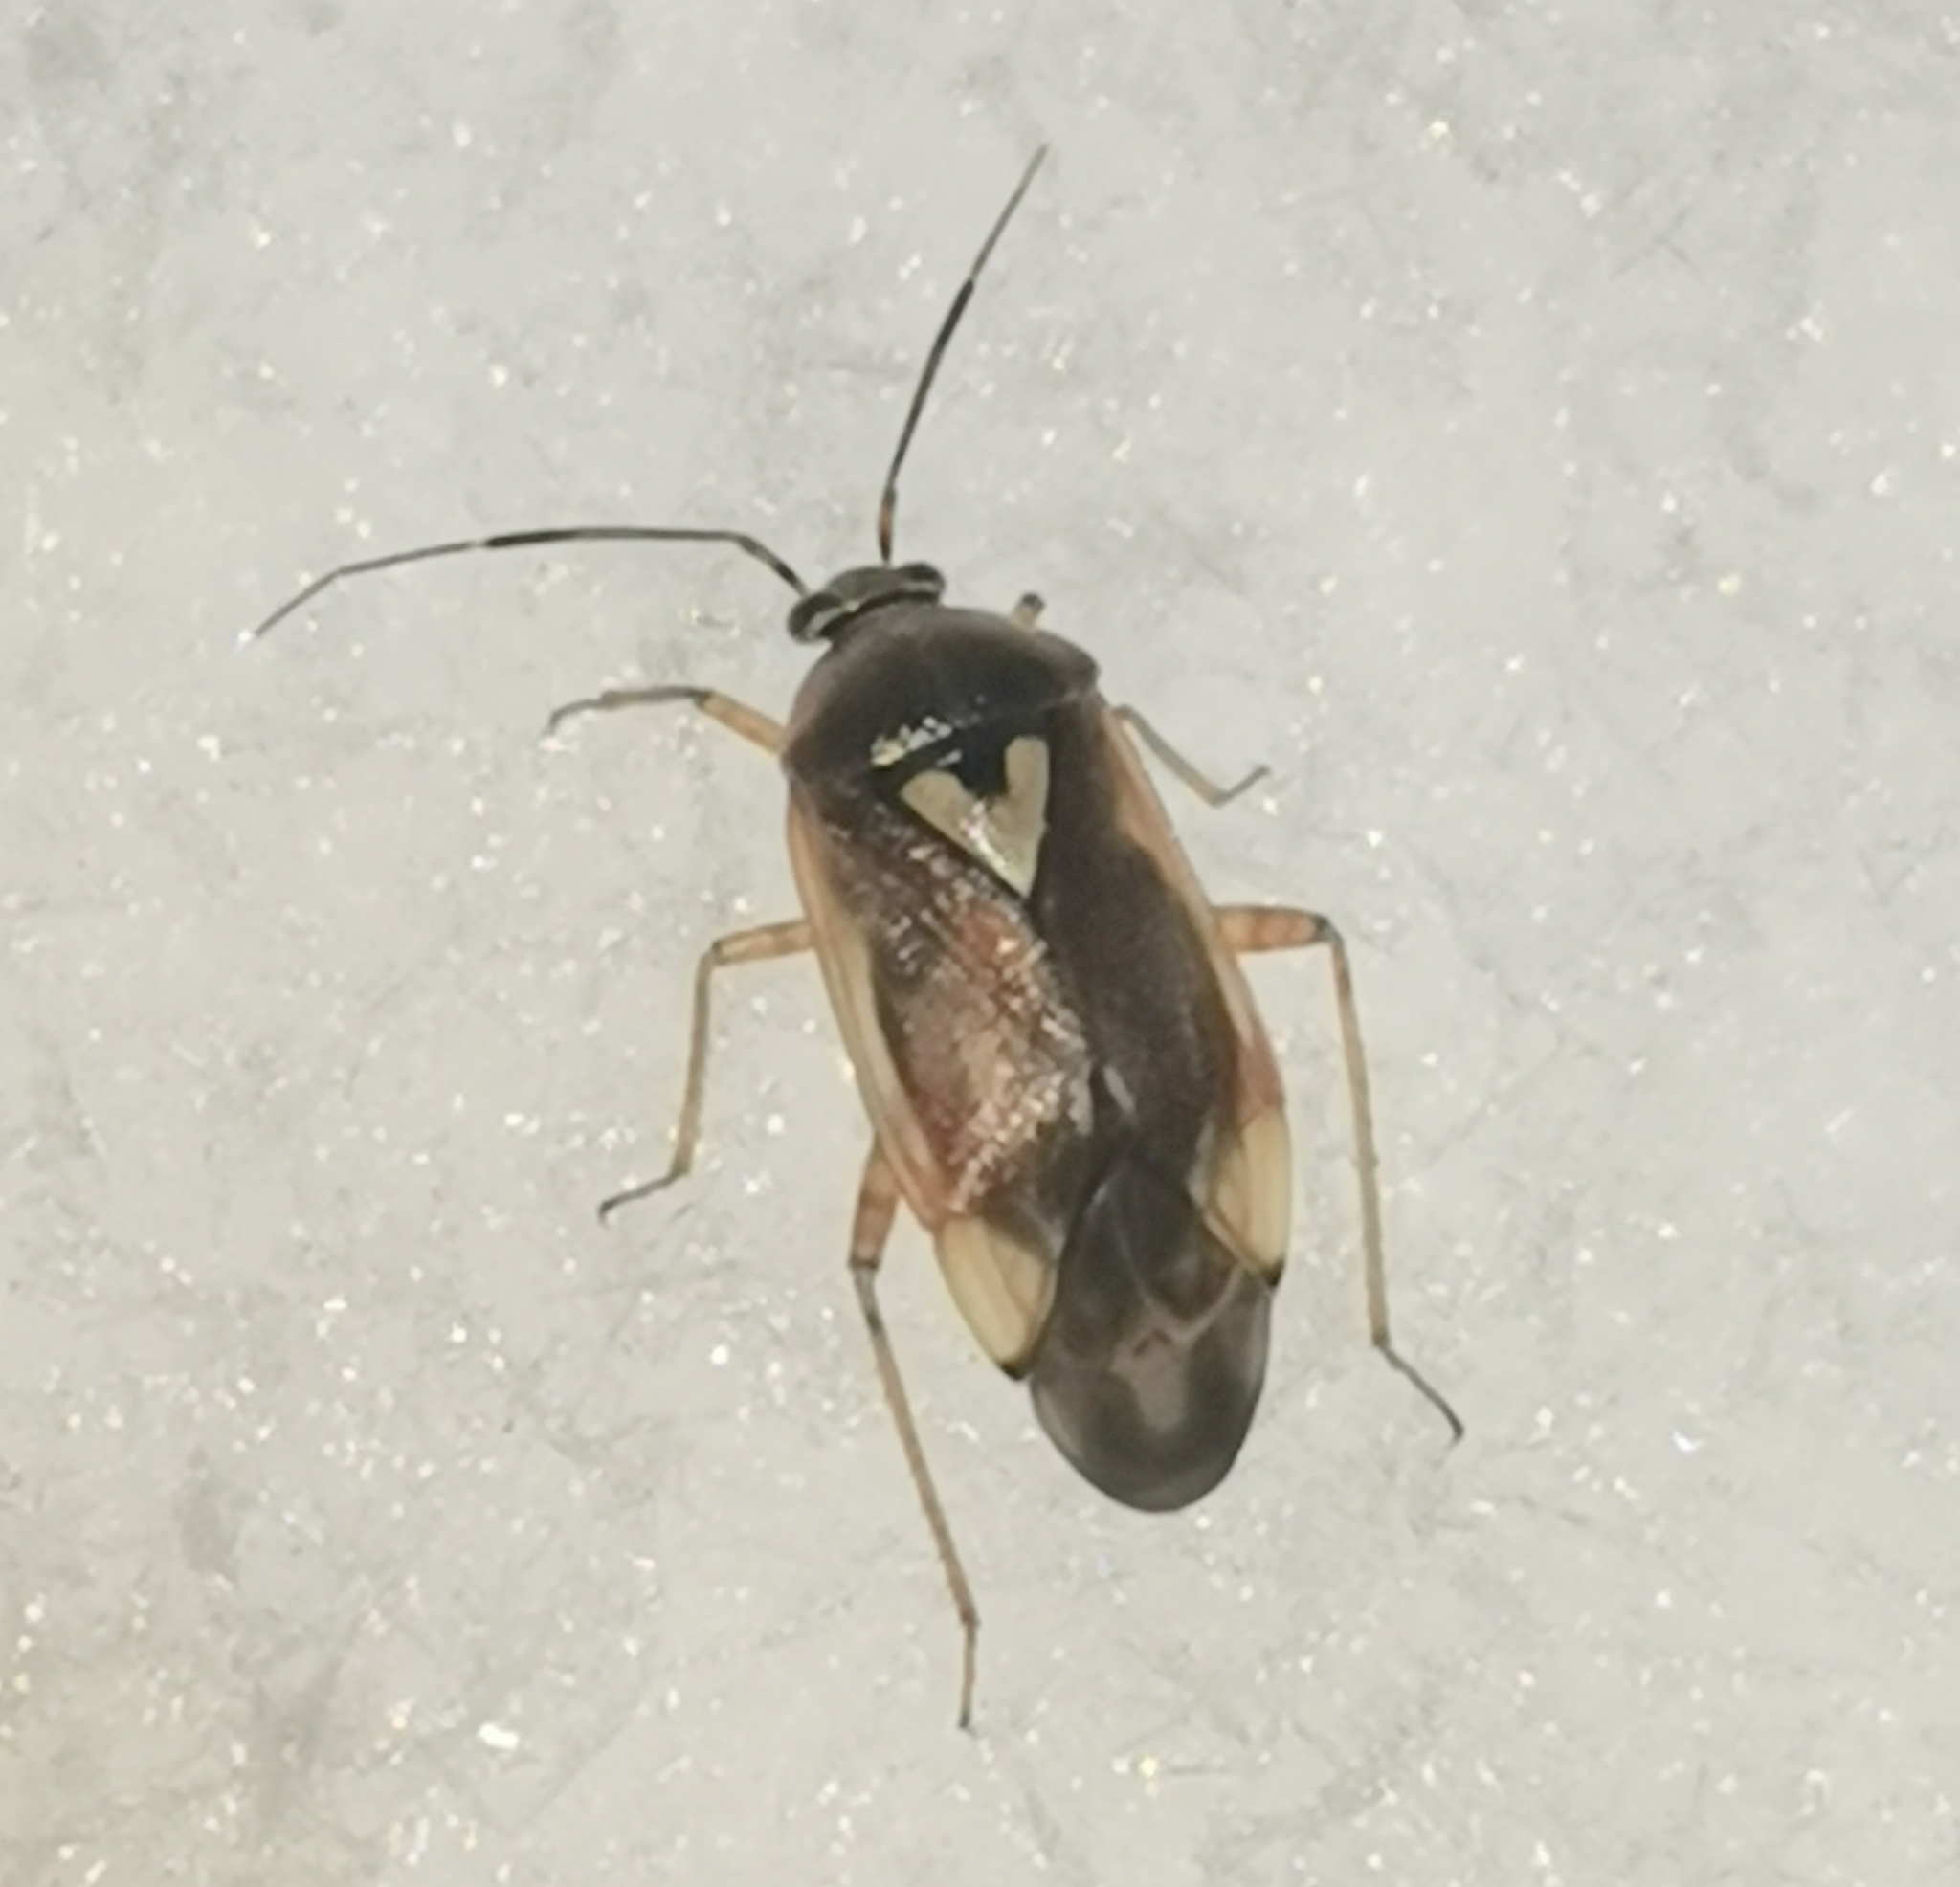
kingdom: Animalia
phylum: Arthropoda
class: Insecta
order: Hemiptera
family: Miridae
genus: Lygus
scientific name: Lygus pratensis
